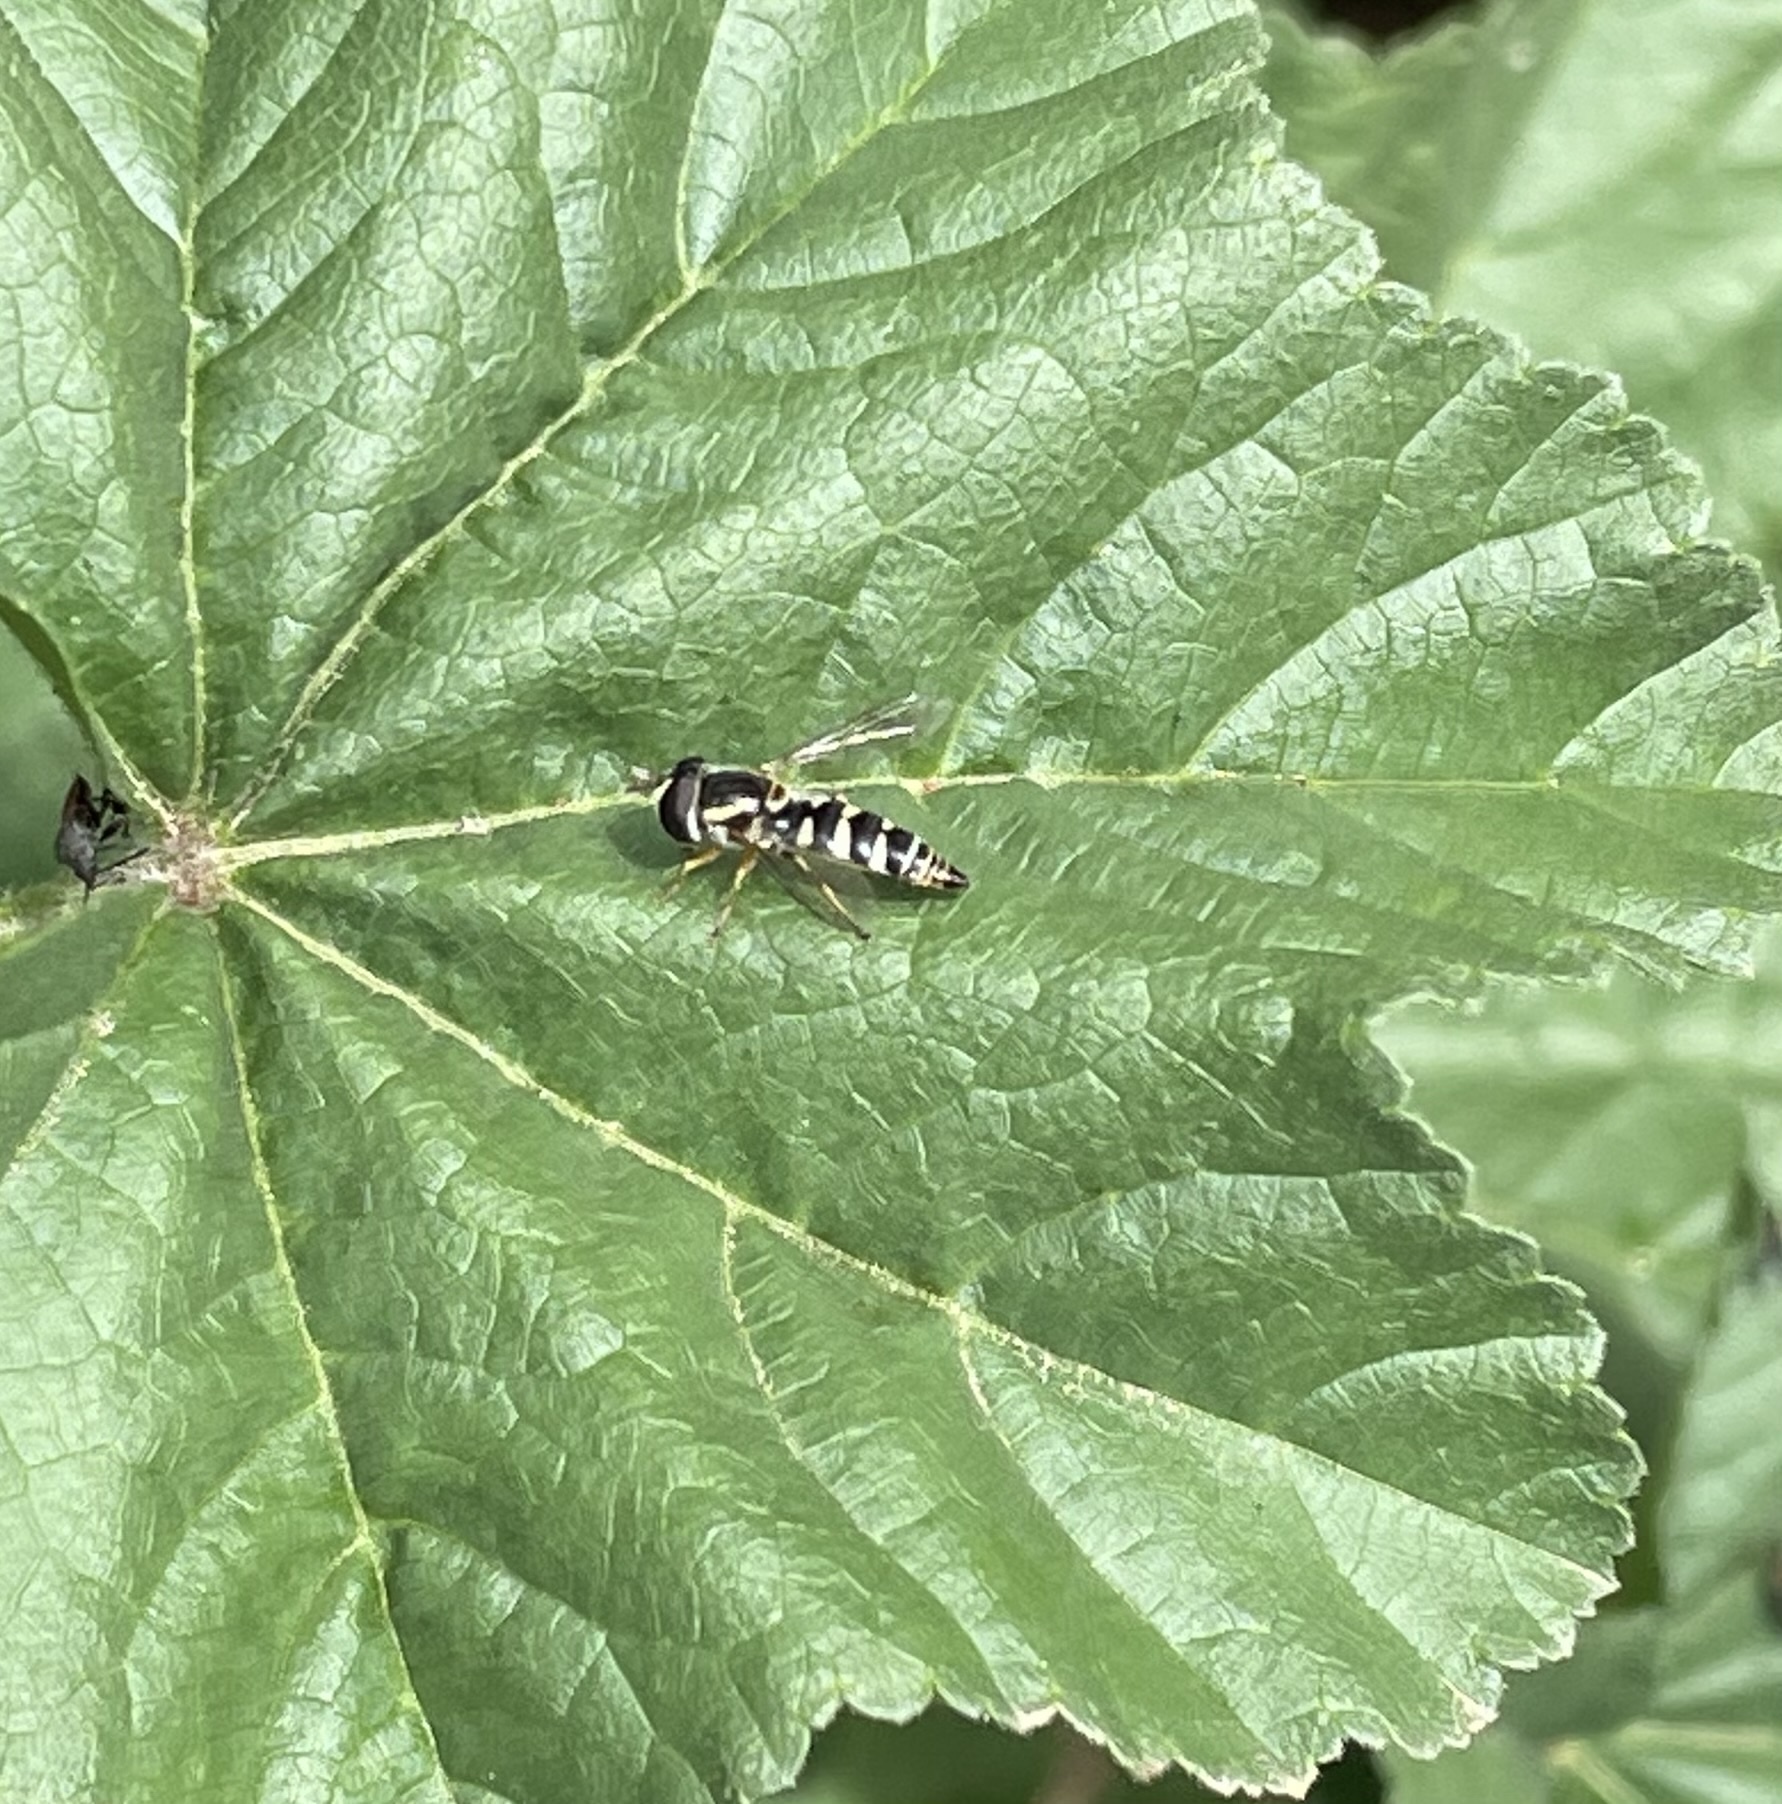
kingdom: Animalia
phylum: Arthropoda
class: Insecta
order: Diptera
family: Syrphidae
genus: Ischiodon
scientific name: Ischiodon aegyptius
